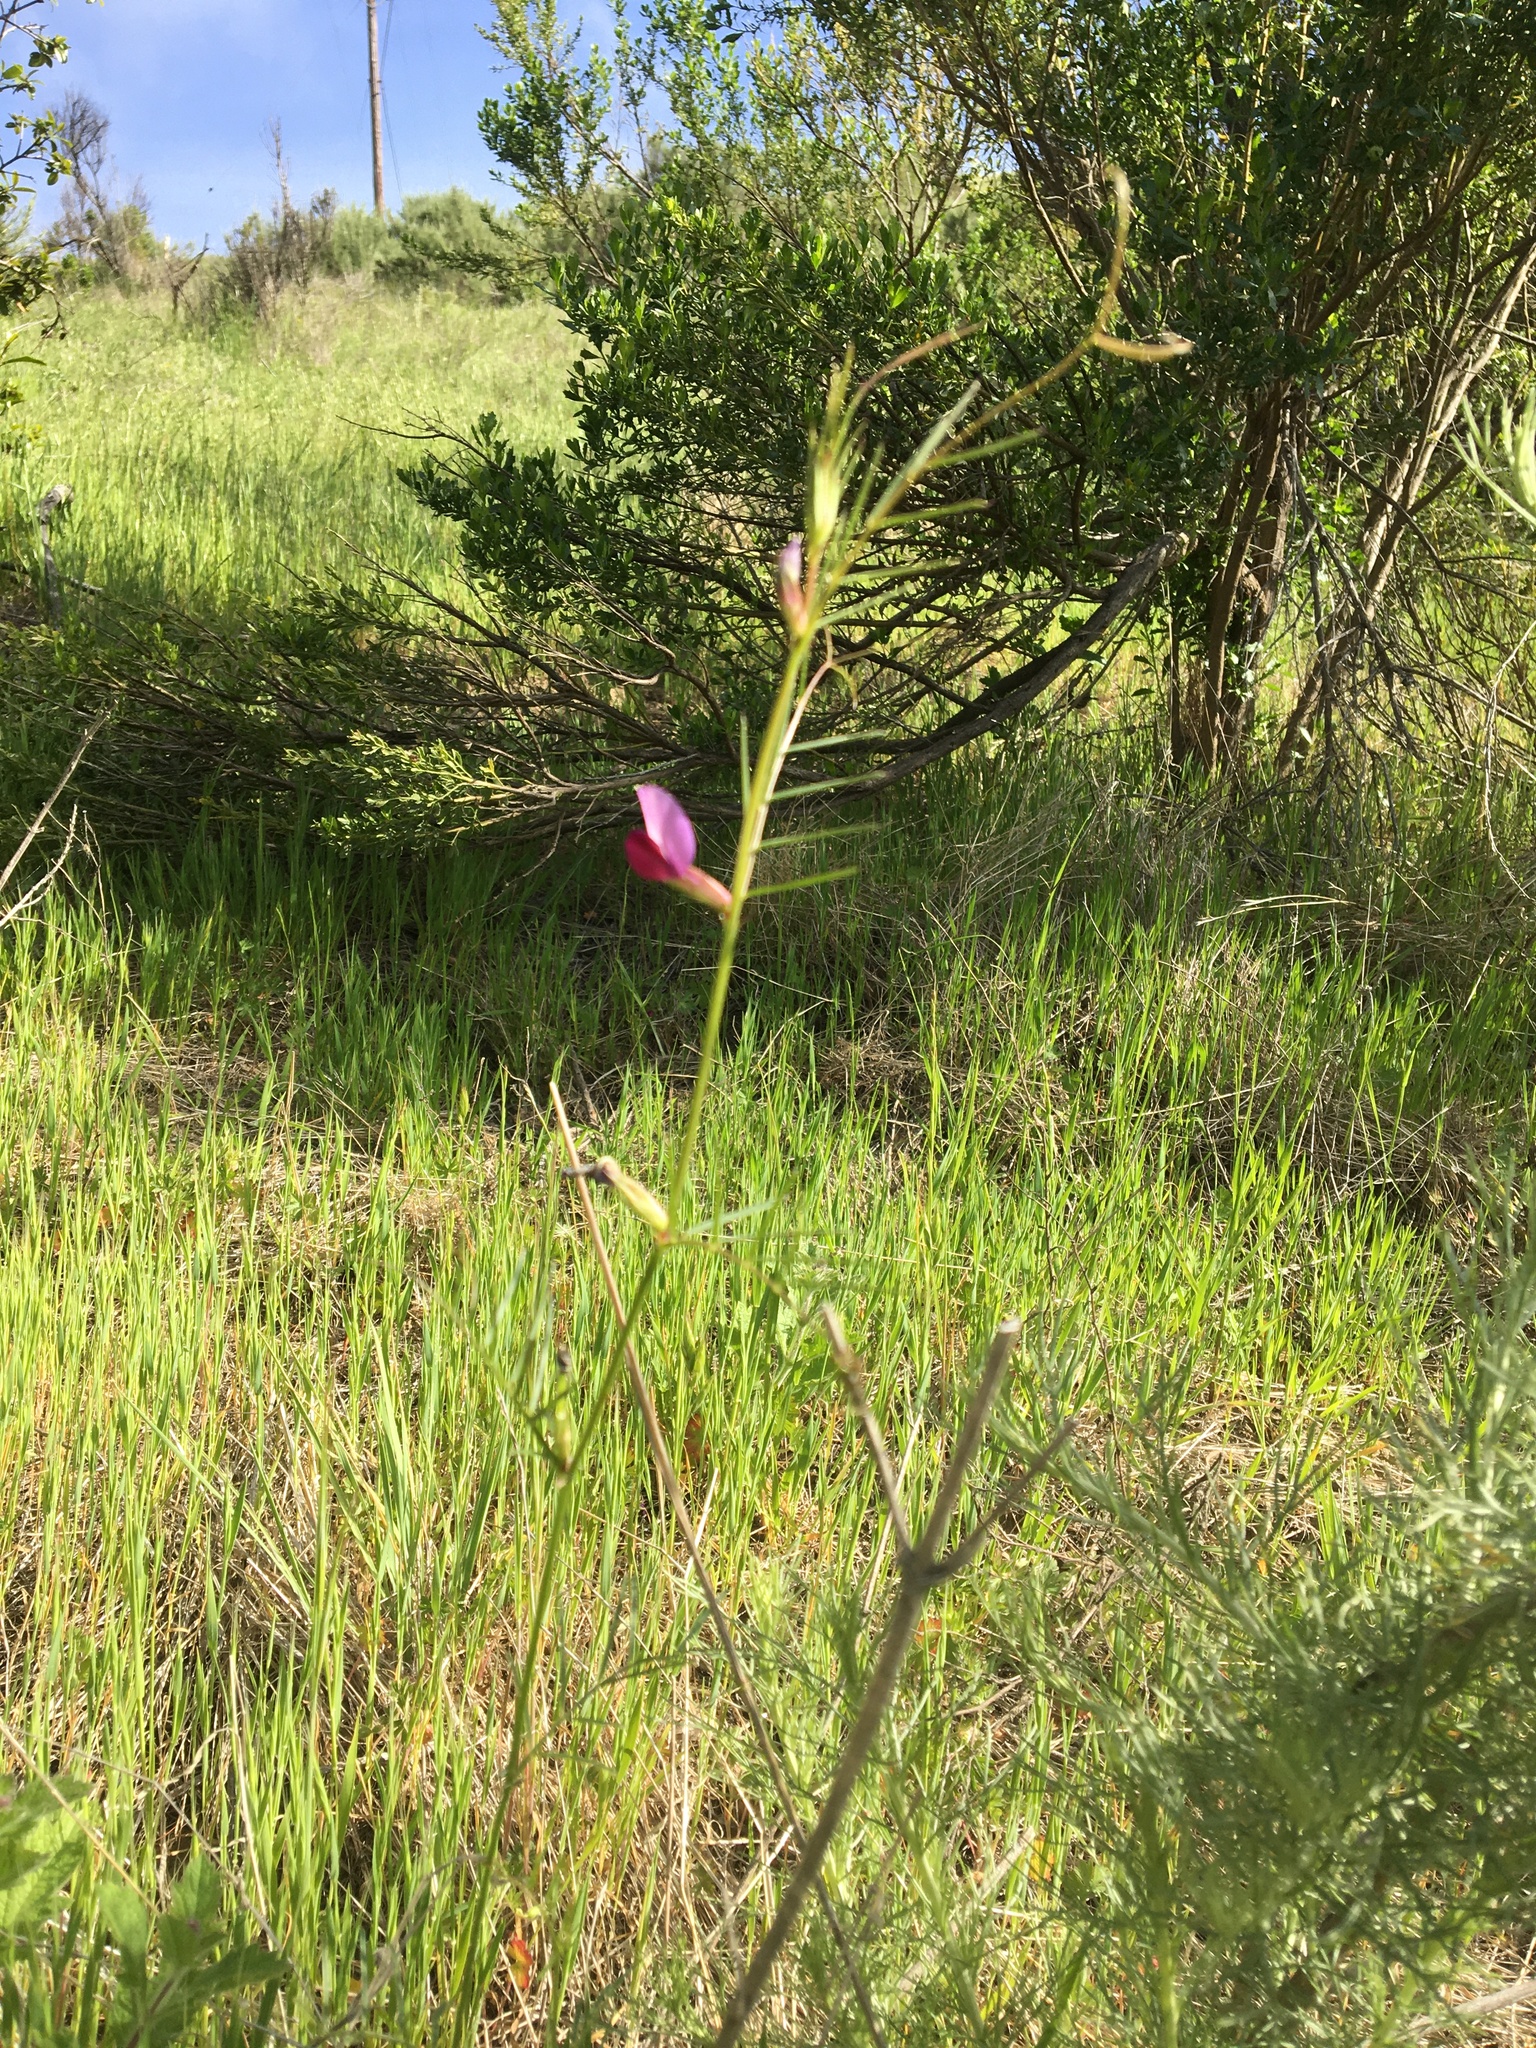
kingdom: Plantae
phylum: Tracheophyta
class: Magnoliopsida
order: Fabales
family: Fabaceae
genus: Vicia
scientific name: Vicia sativa
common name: Garden vetch
